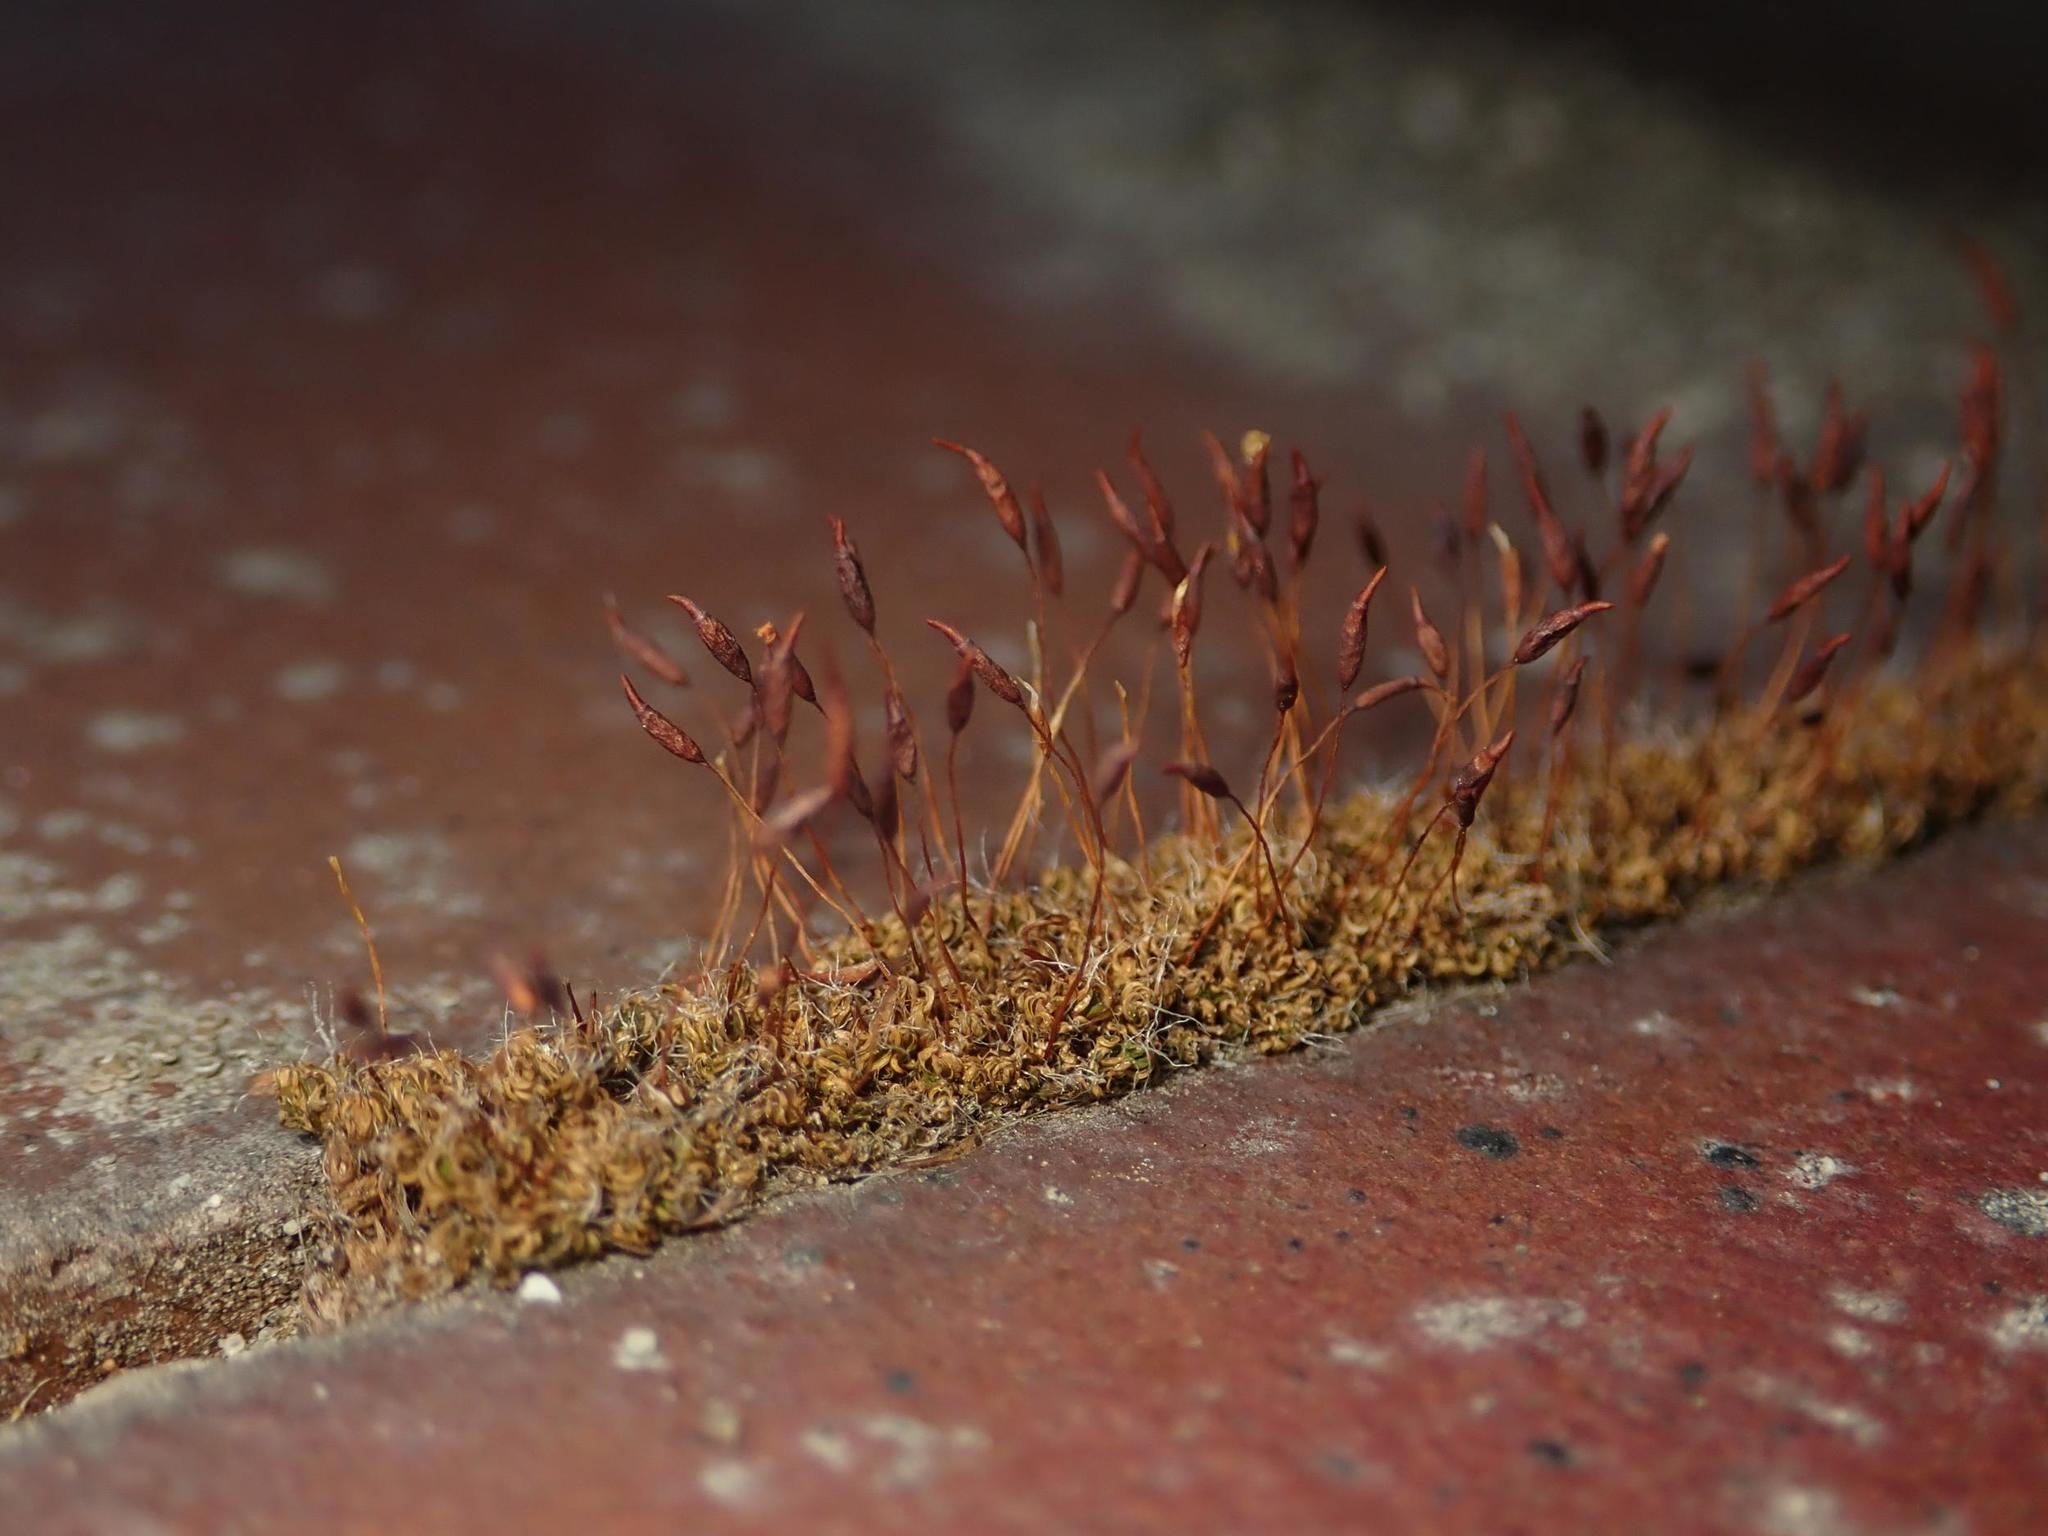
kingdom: Plantae
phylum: Bryophyta
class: Bryopsida
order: Pottiales
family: Pottiaceae
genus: Tortula
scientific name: Tortula muralis
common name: Wall screw-moss
